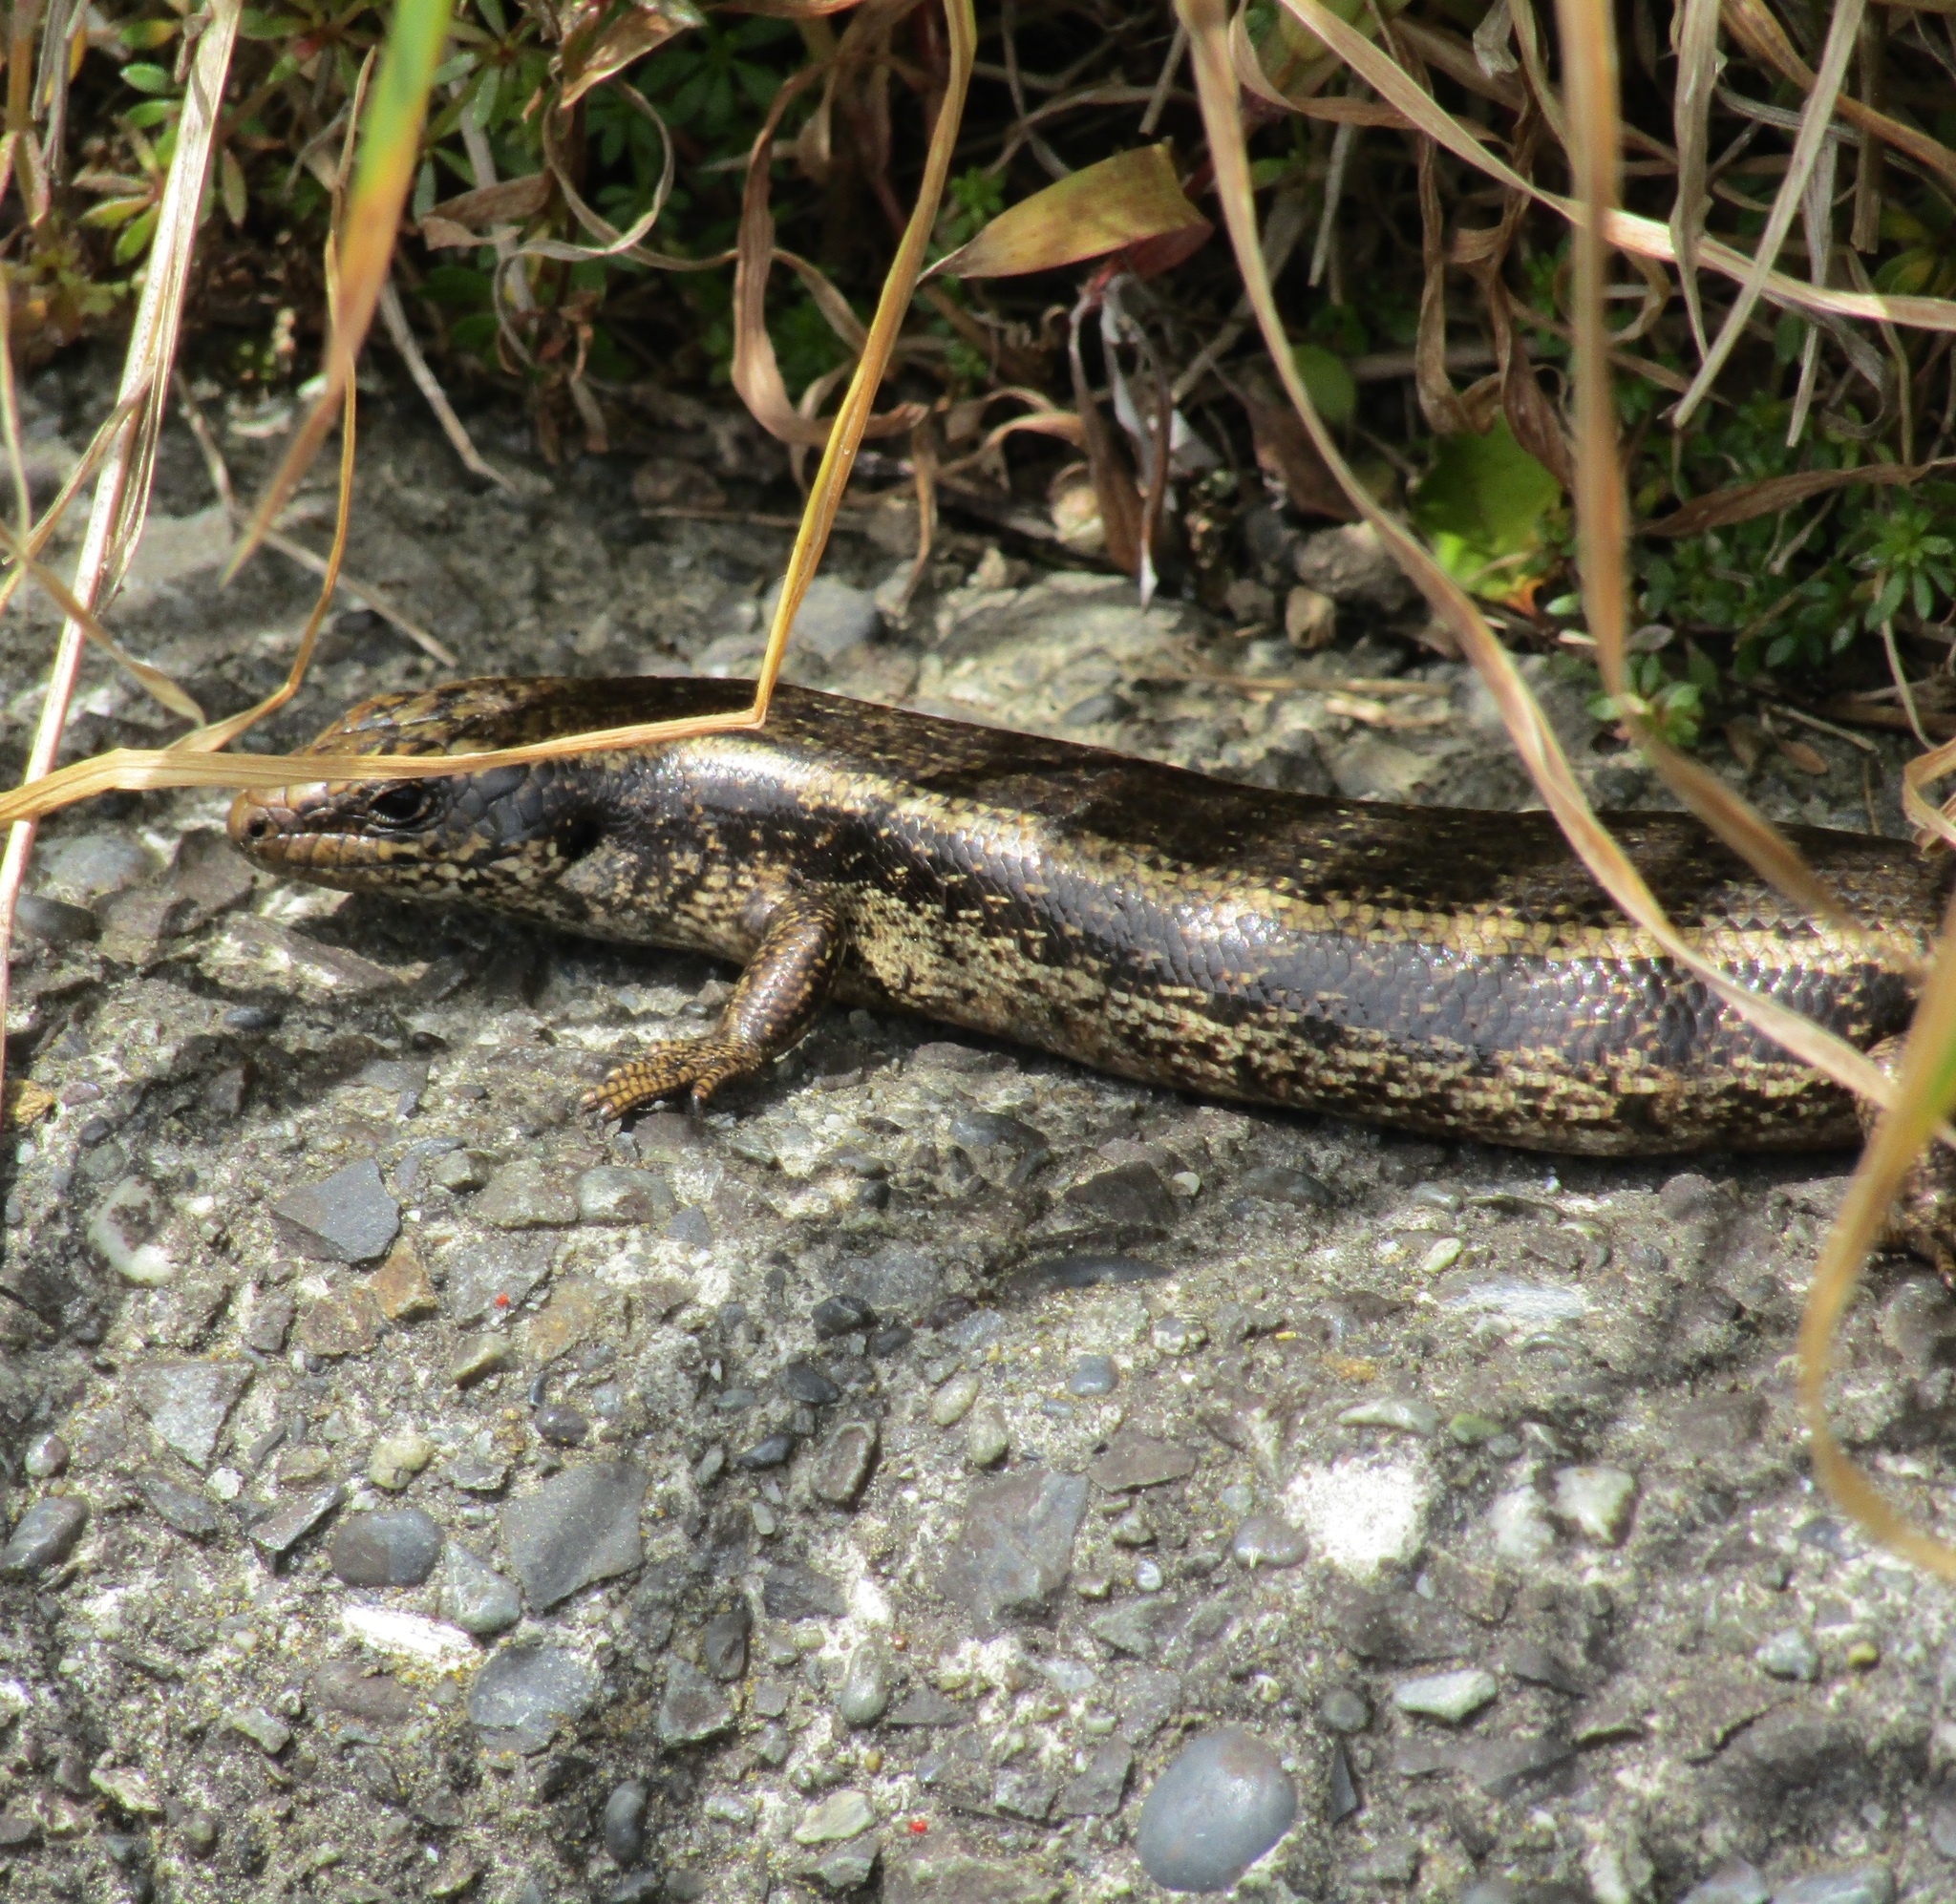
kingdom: Animalia
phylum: Chordata
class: Squamata
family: Scincidae
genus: Oligosoma
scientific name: Oligosoma kokowai
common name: Northern spotted skink
